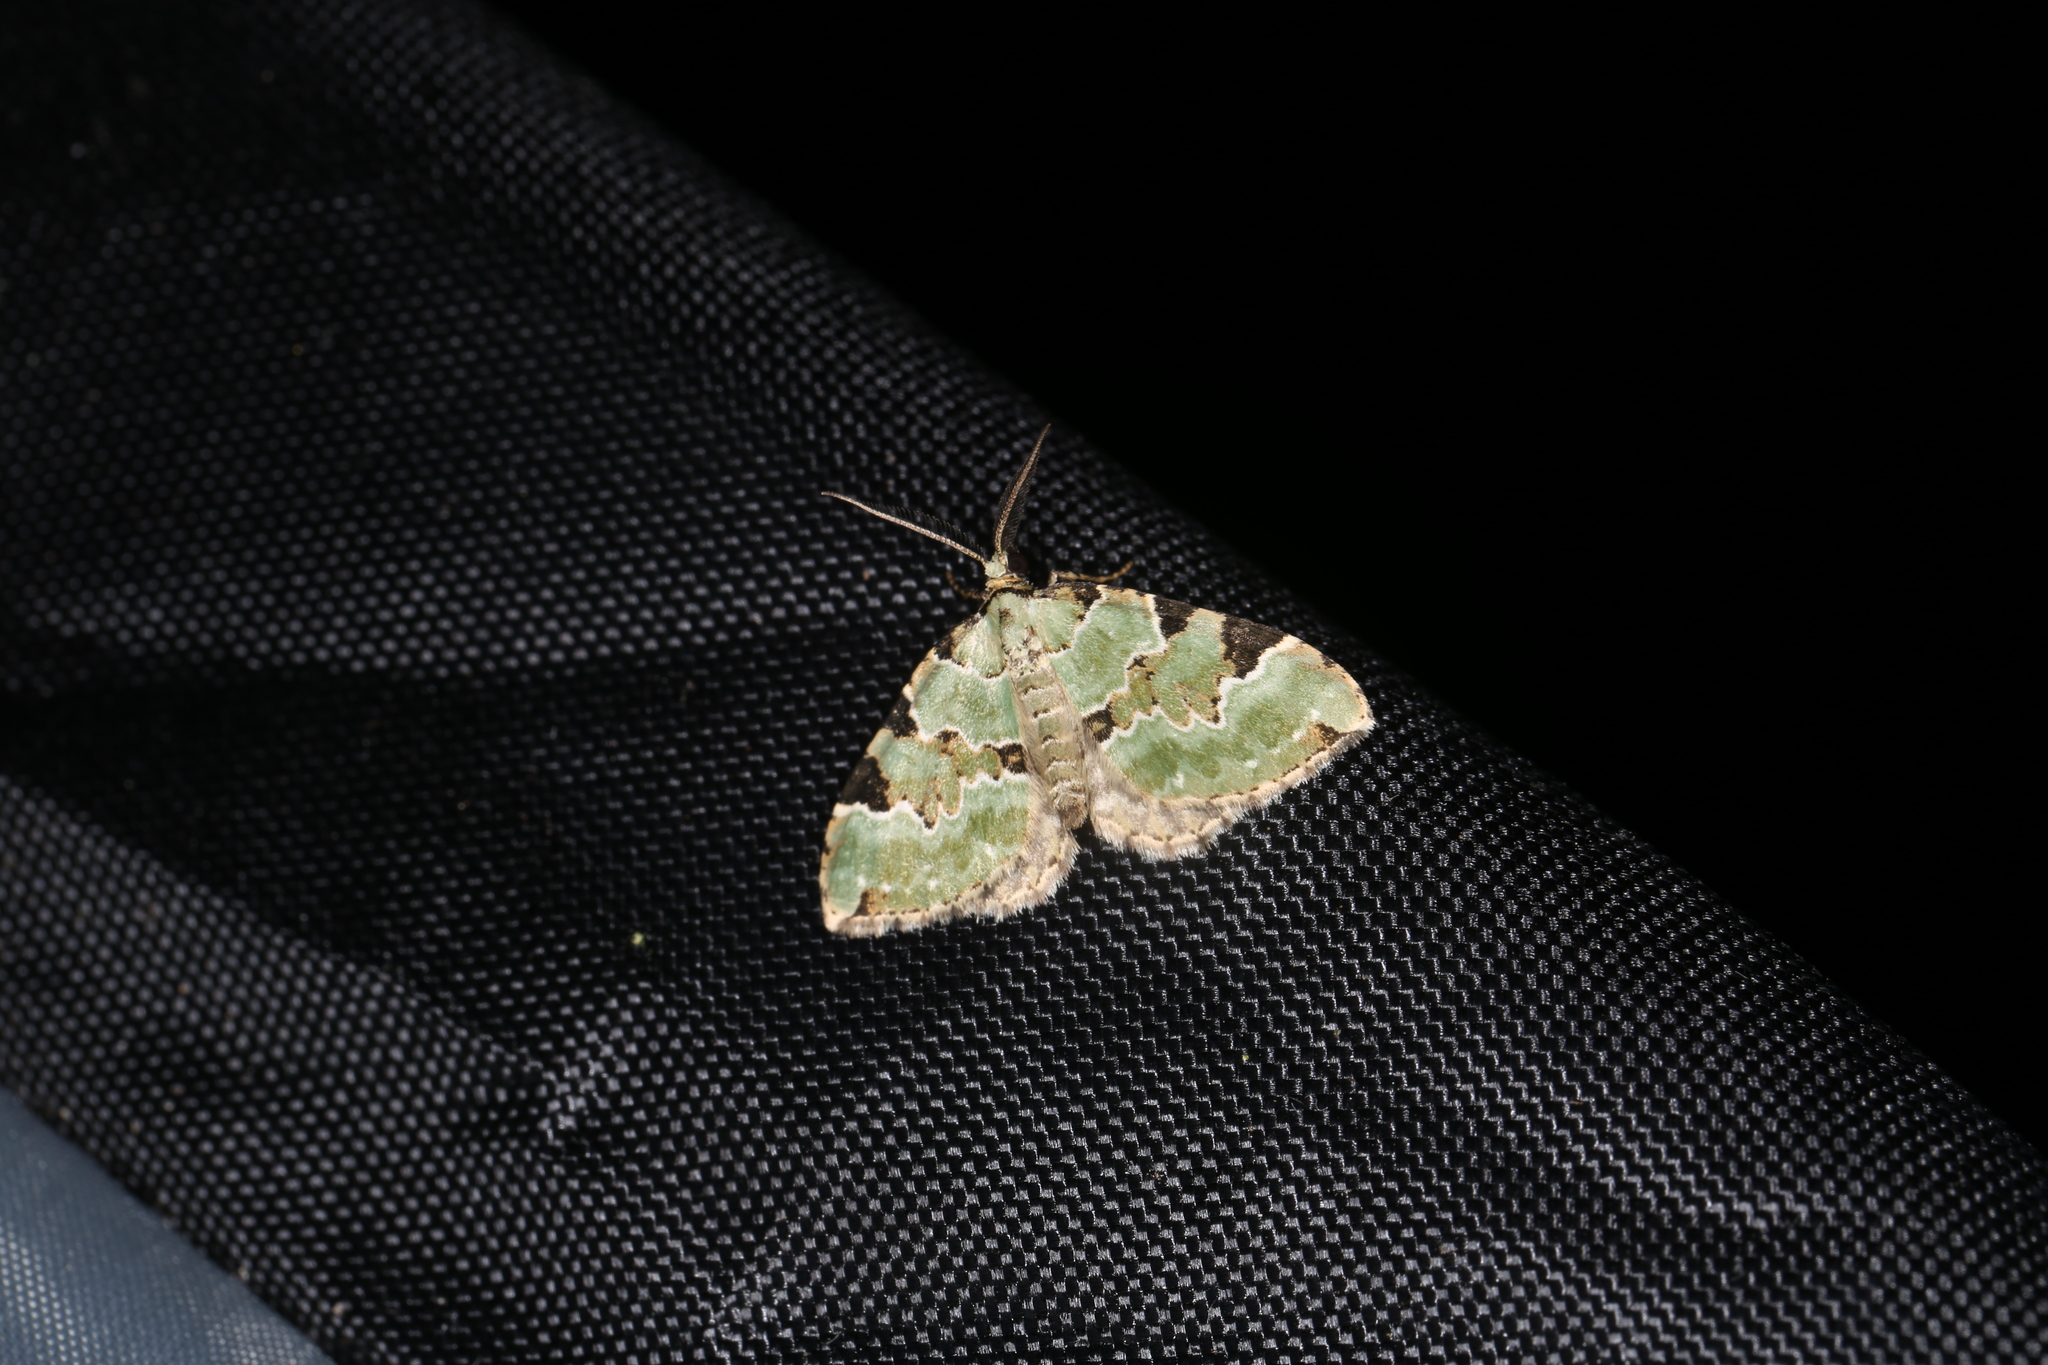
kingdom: Animalia
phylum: Arthropoda
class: Insecta
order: Lepidoptera
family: Geometridae
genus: Colostygia
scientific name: Colostygia pectinataria
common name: Green carpet
